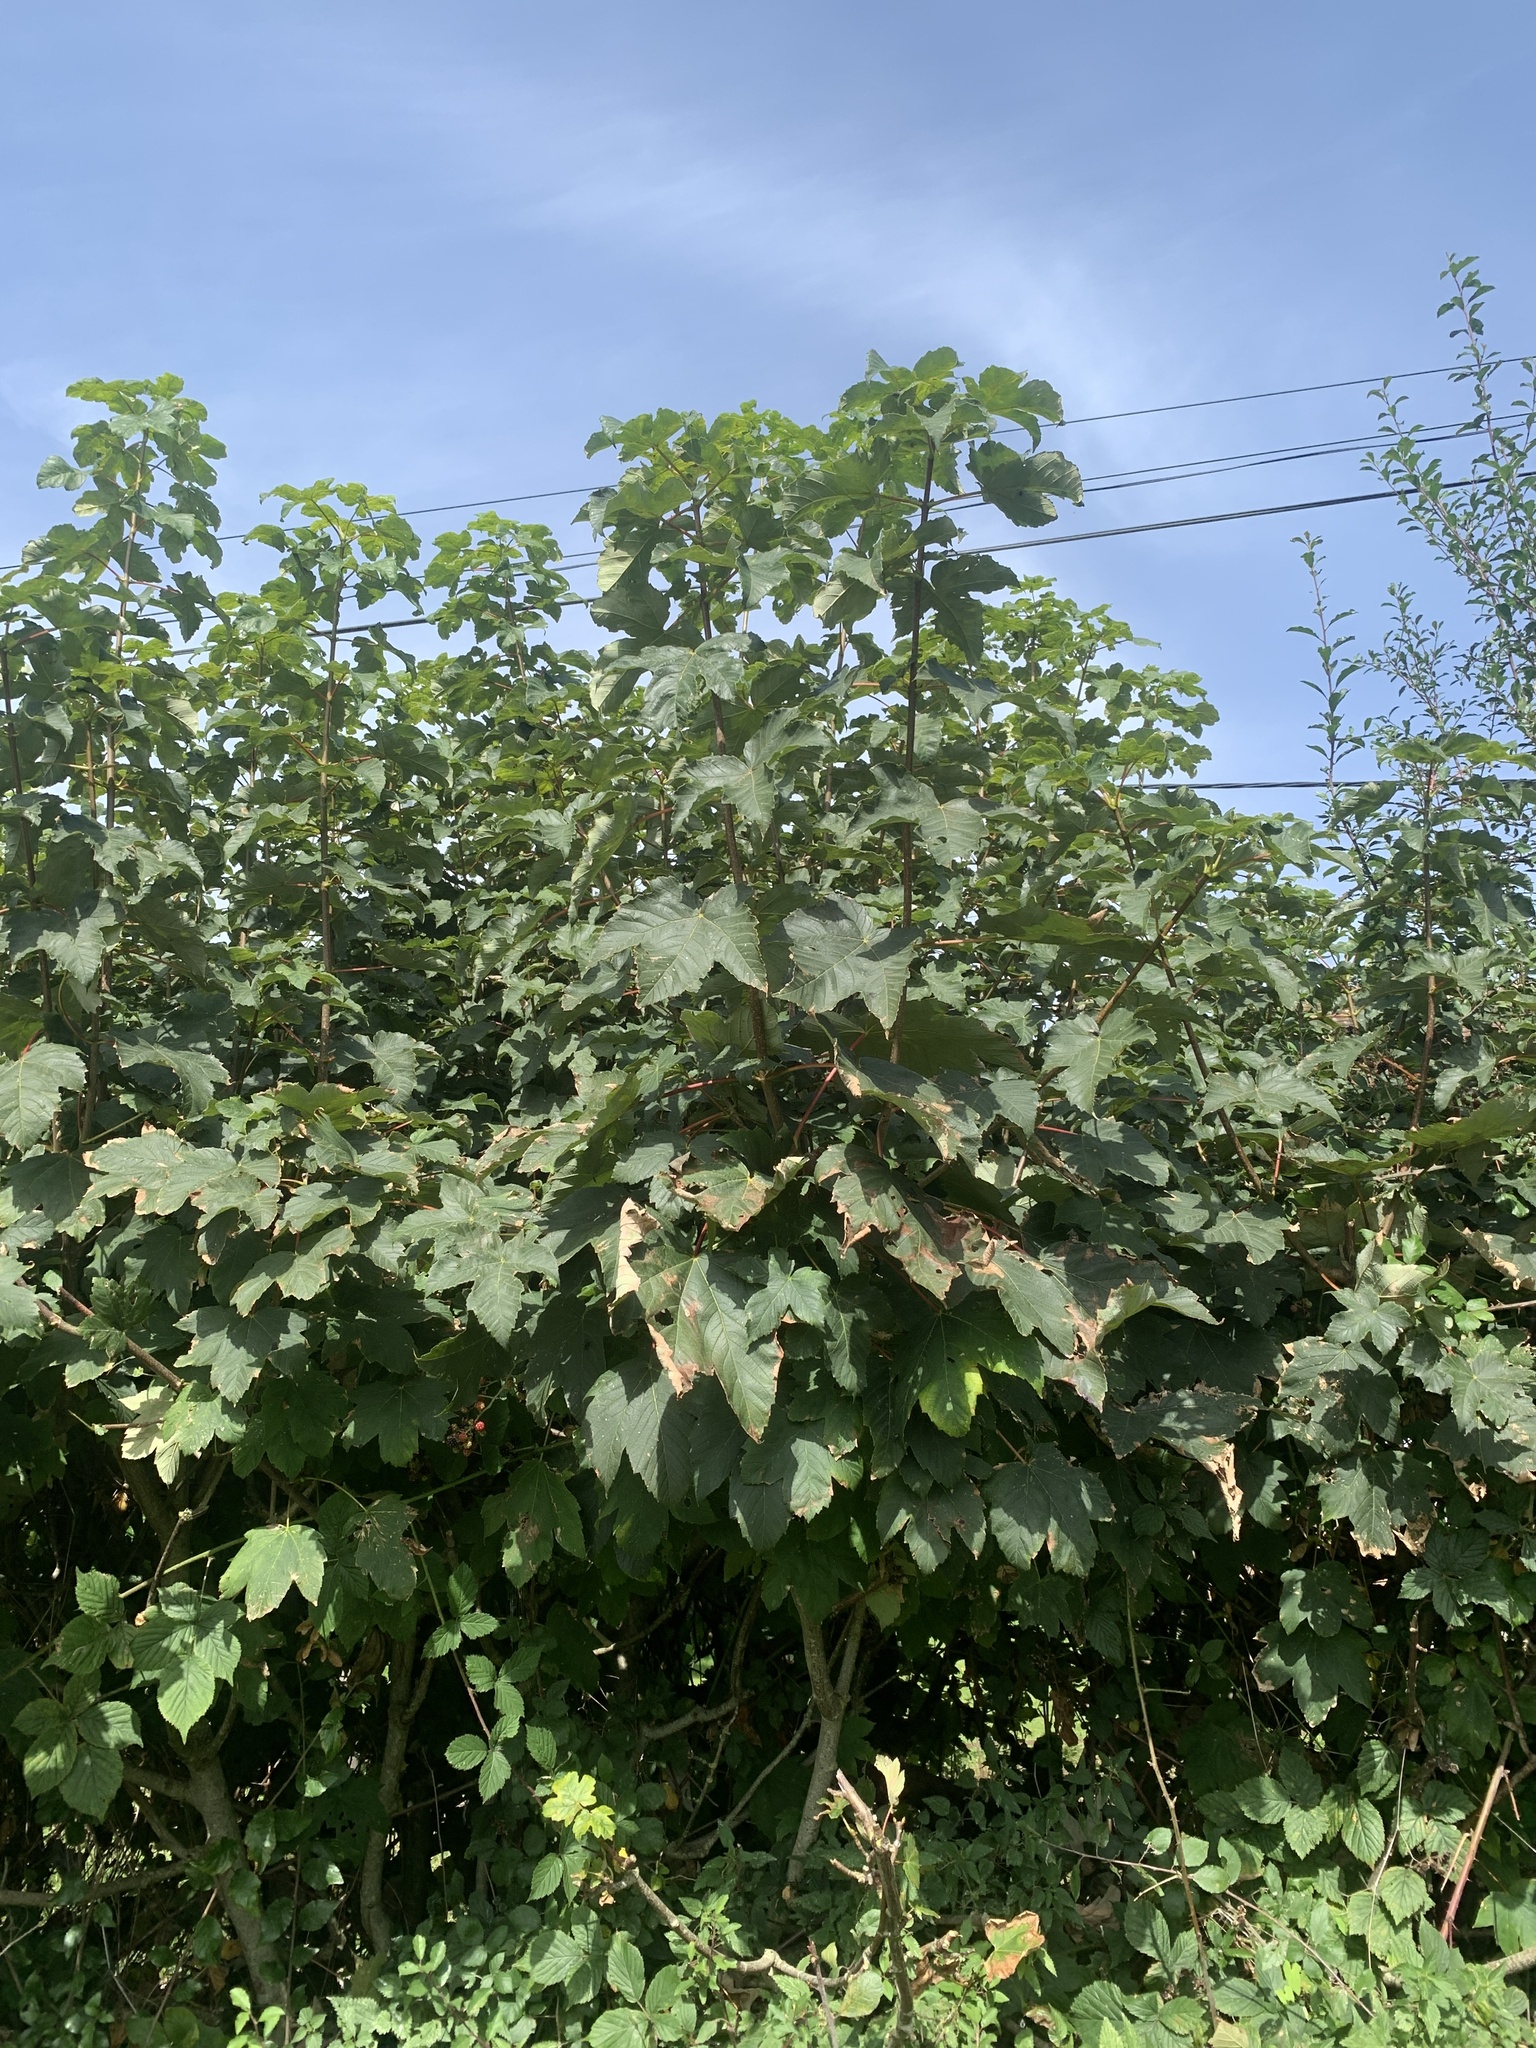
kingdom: Plantae
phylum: Tracheophyta
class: Magnoliopsida
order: Sapindales
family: Sapindaceae
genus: Acer
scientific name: Acer pseudoplatanus
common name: Sycamore
